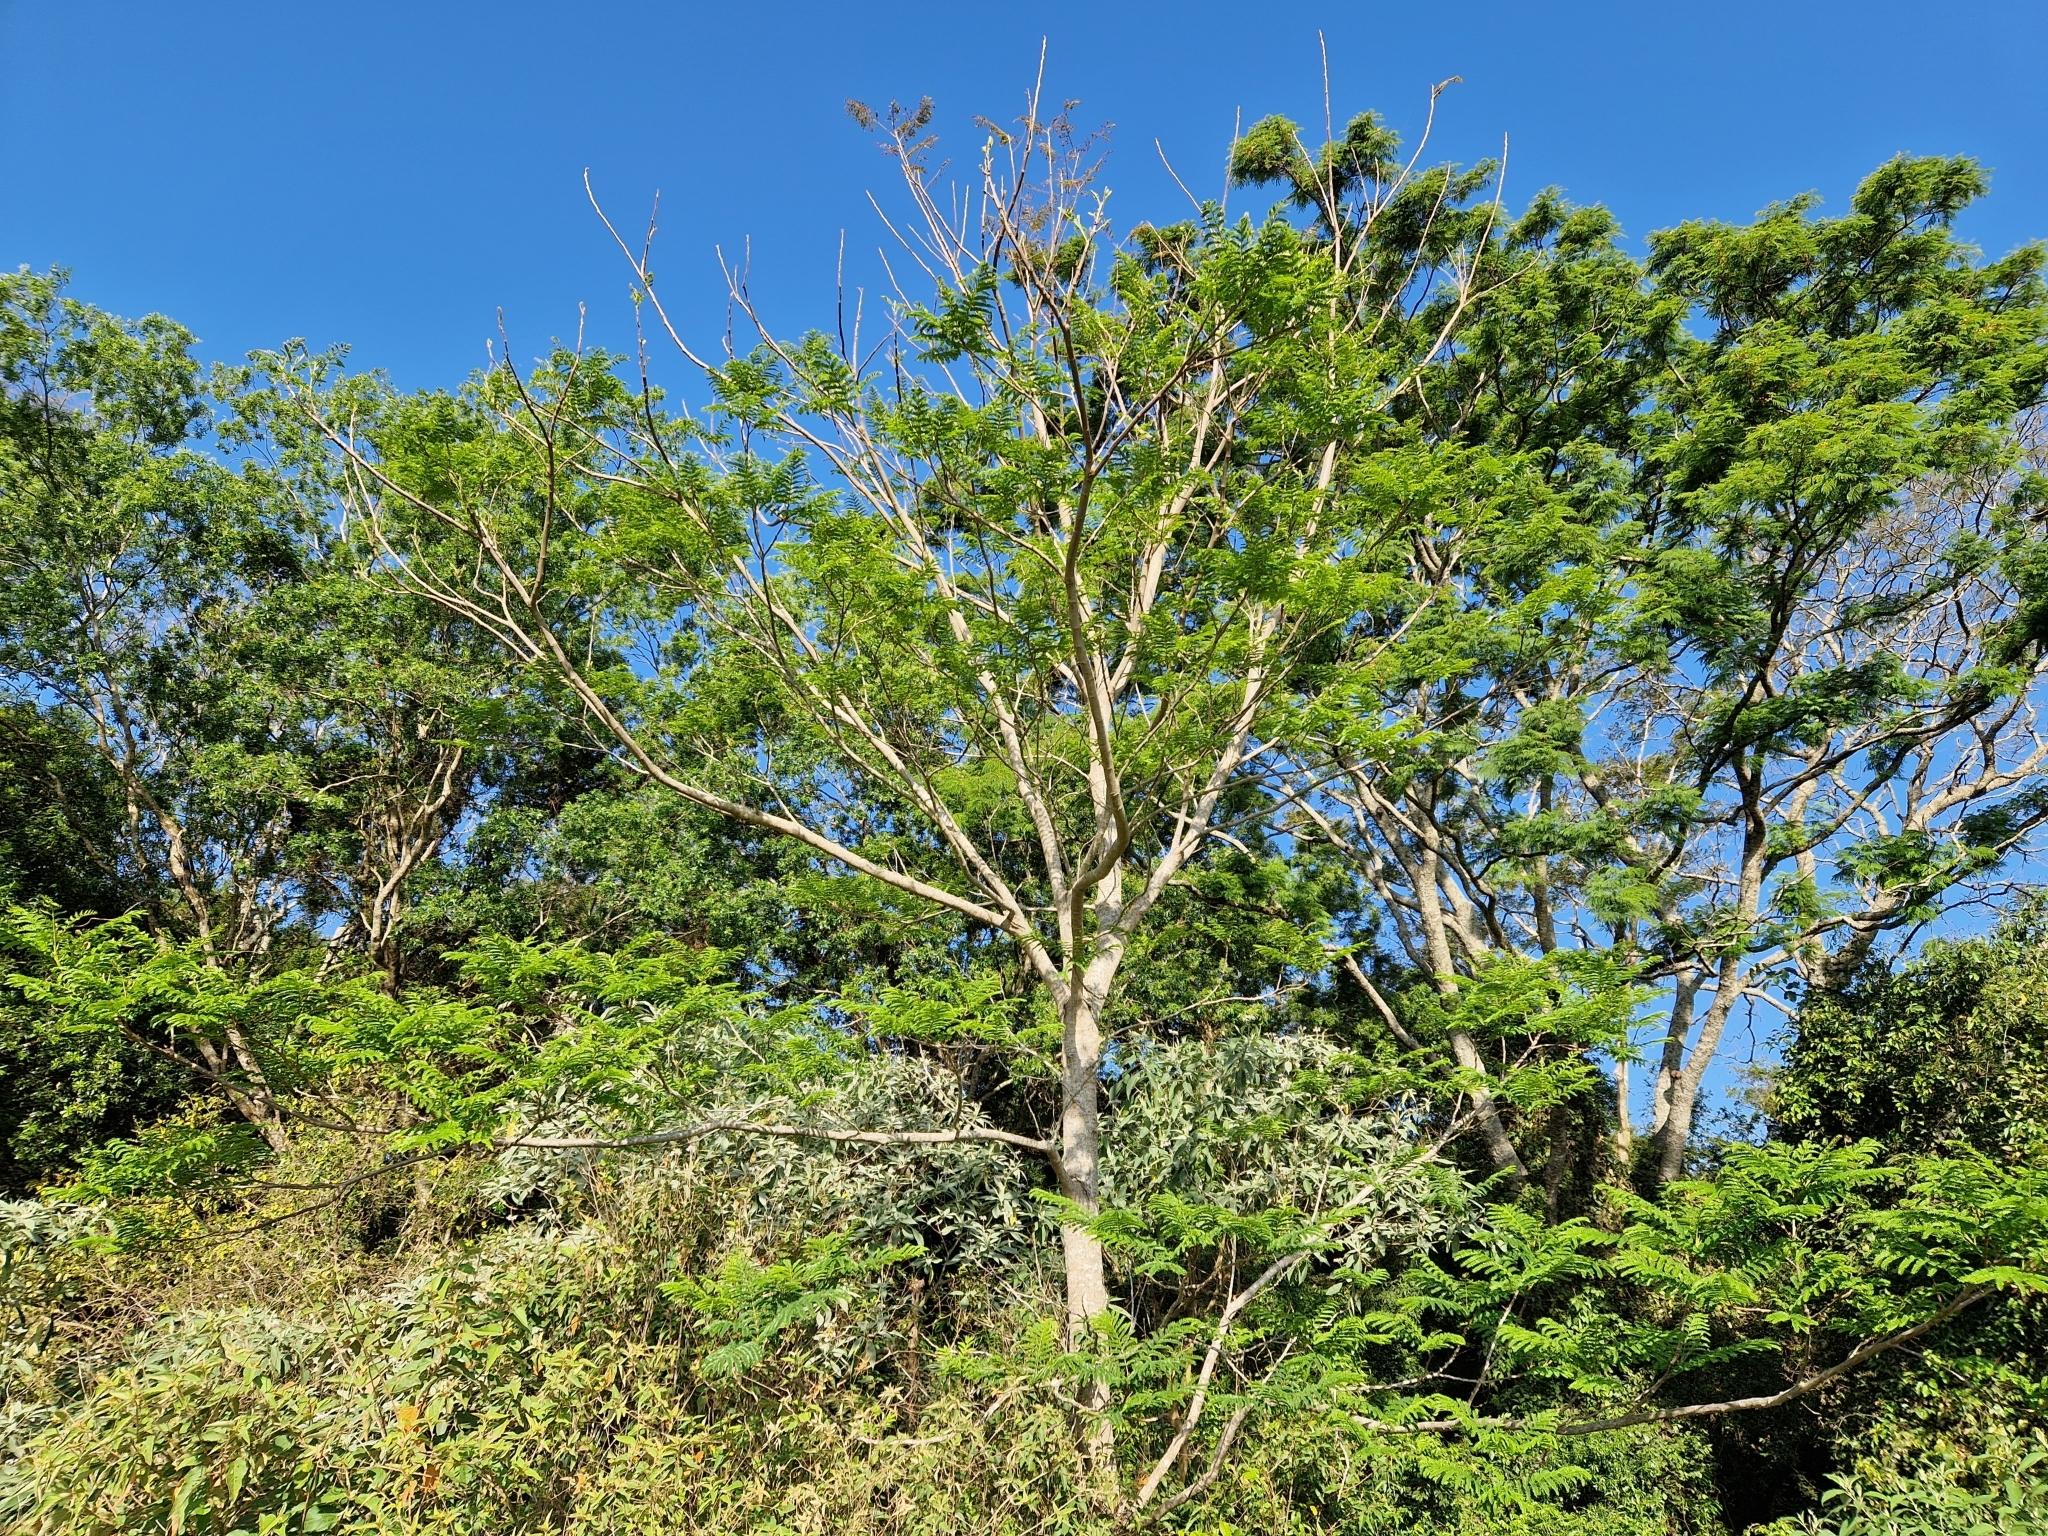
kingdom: Plantae
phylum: Tracheophyta
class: Magnoliopsida
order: Fabales
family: Fabaceae
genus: Peltophorum
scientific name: Peltophorum dubium
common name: Horsebush
